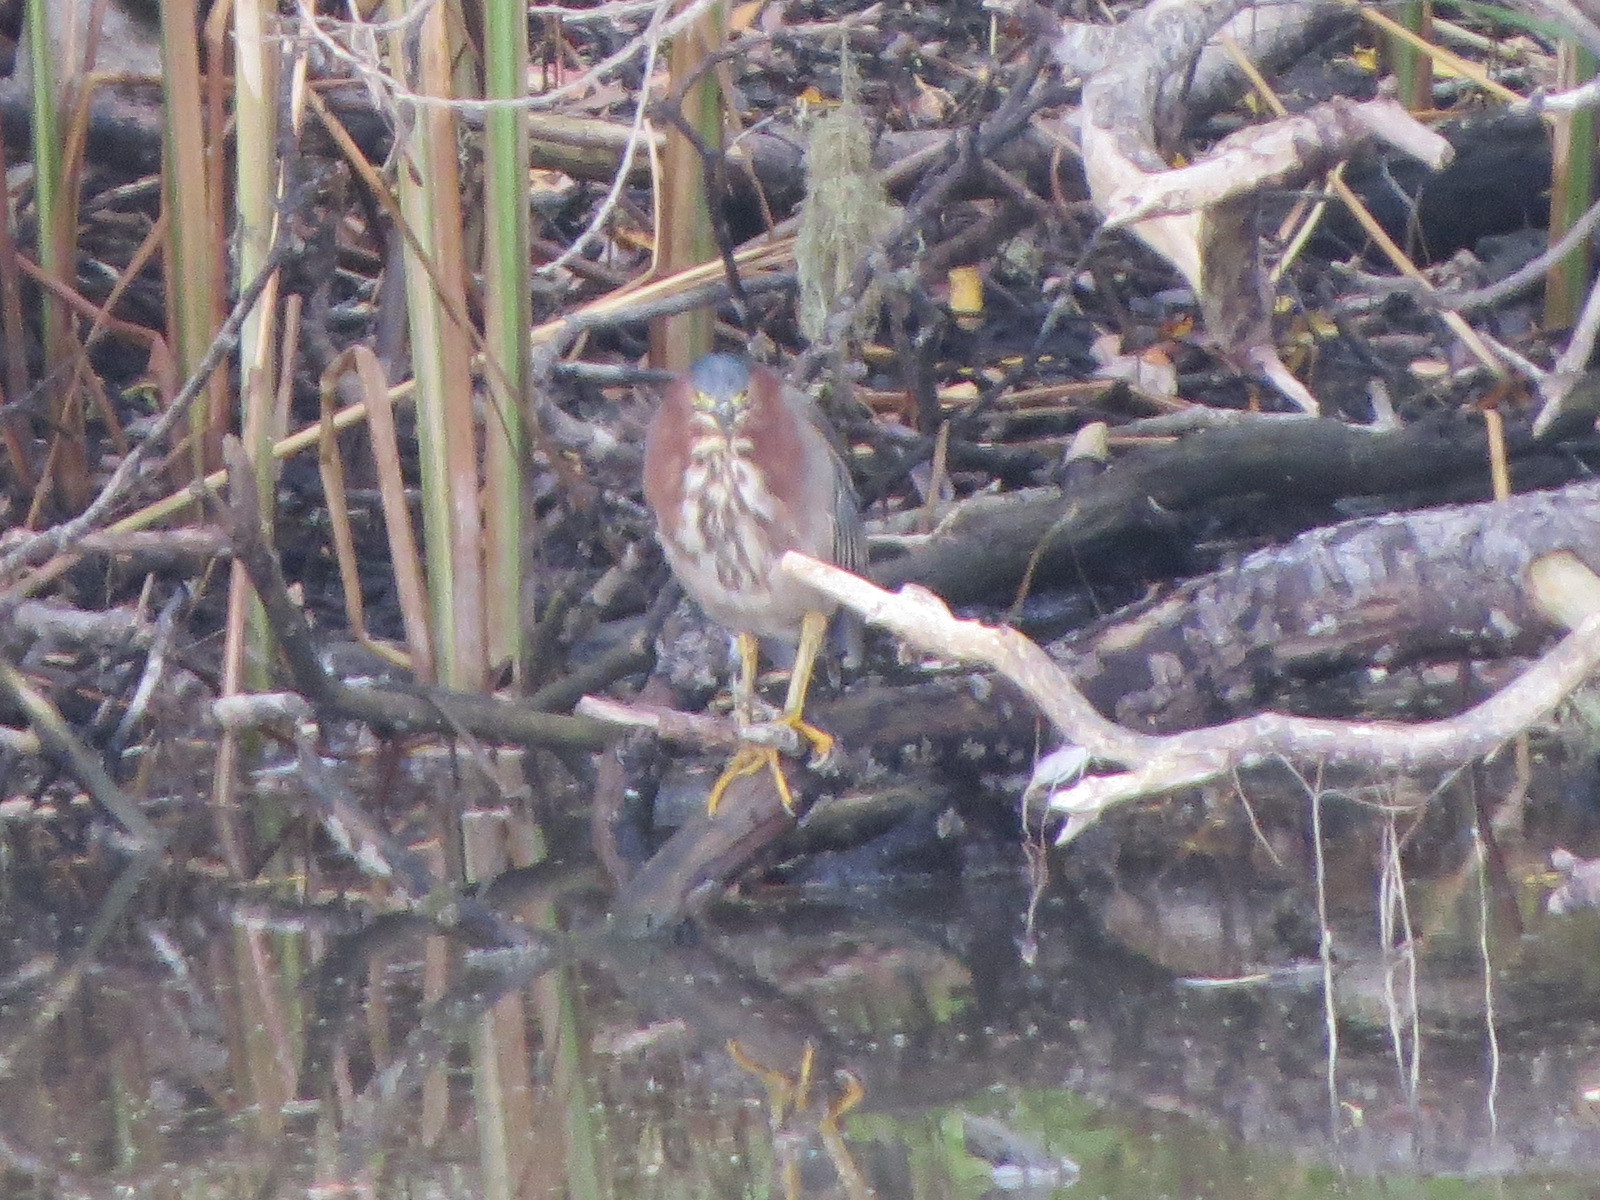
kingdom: Animalia
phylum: Chordata
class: Aves
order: Pelecaniformes
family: Ardeidae
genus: Butorides
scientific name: Butorides virescens
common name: Green heron
